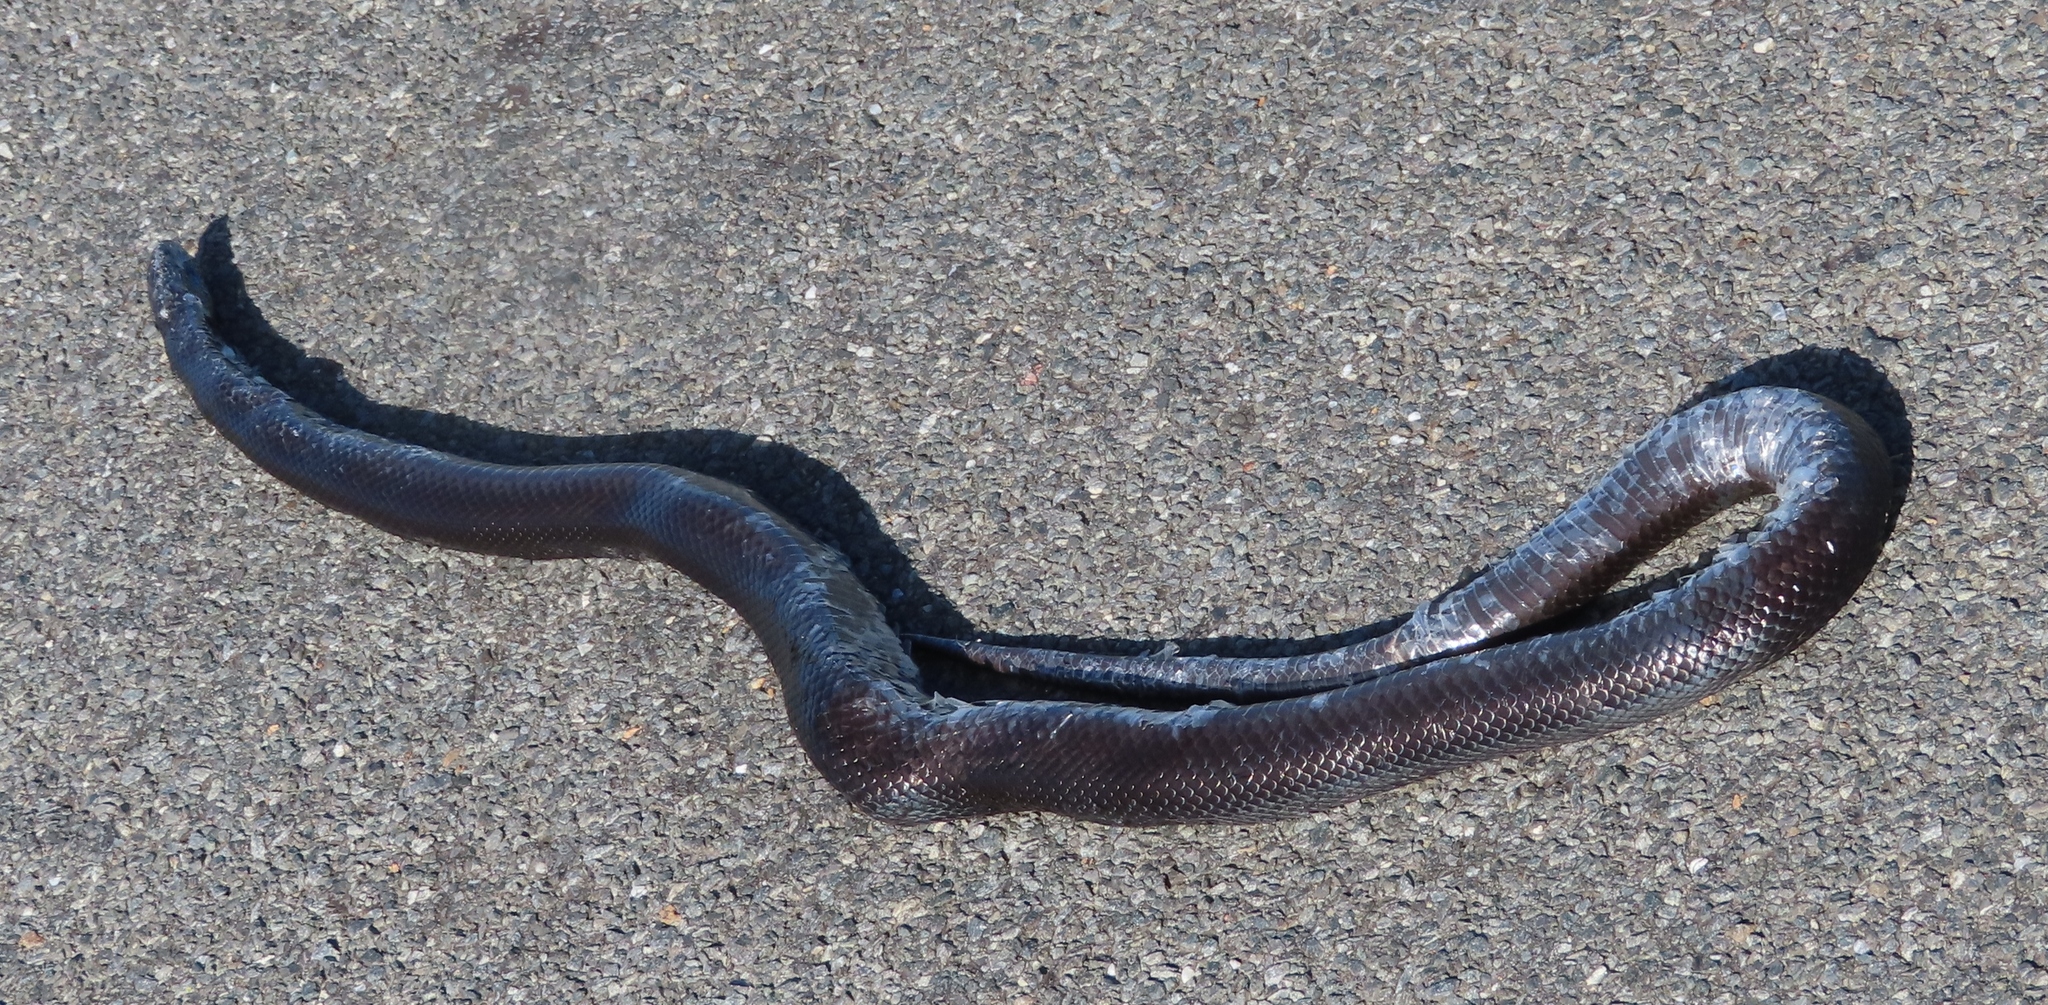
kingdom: Animalia
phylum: Chordata
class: Squamata
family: Pseudaspididae
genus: Pseudaspis
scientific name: Pseudaspis cana
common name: Mole snake
